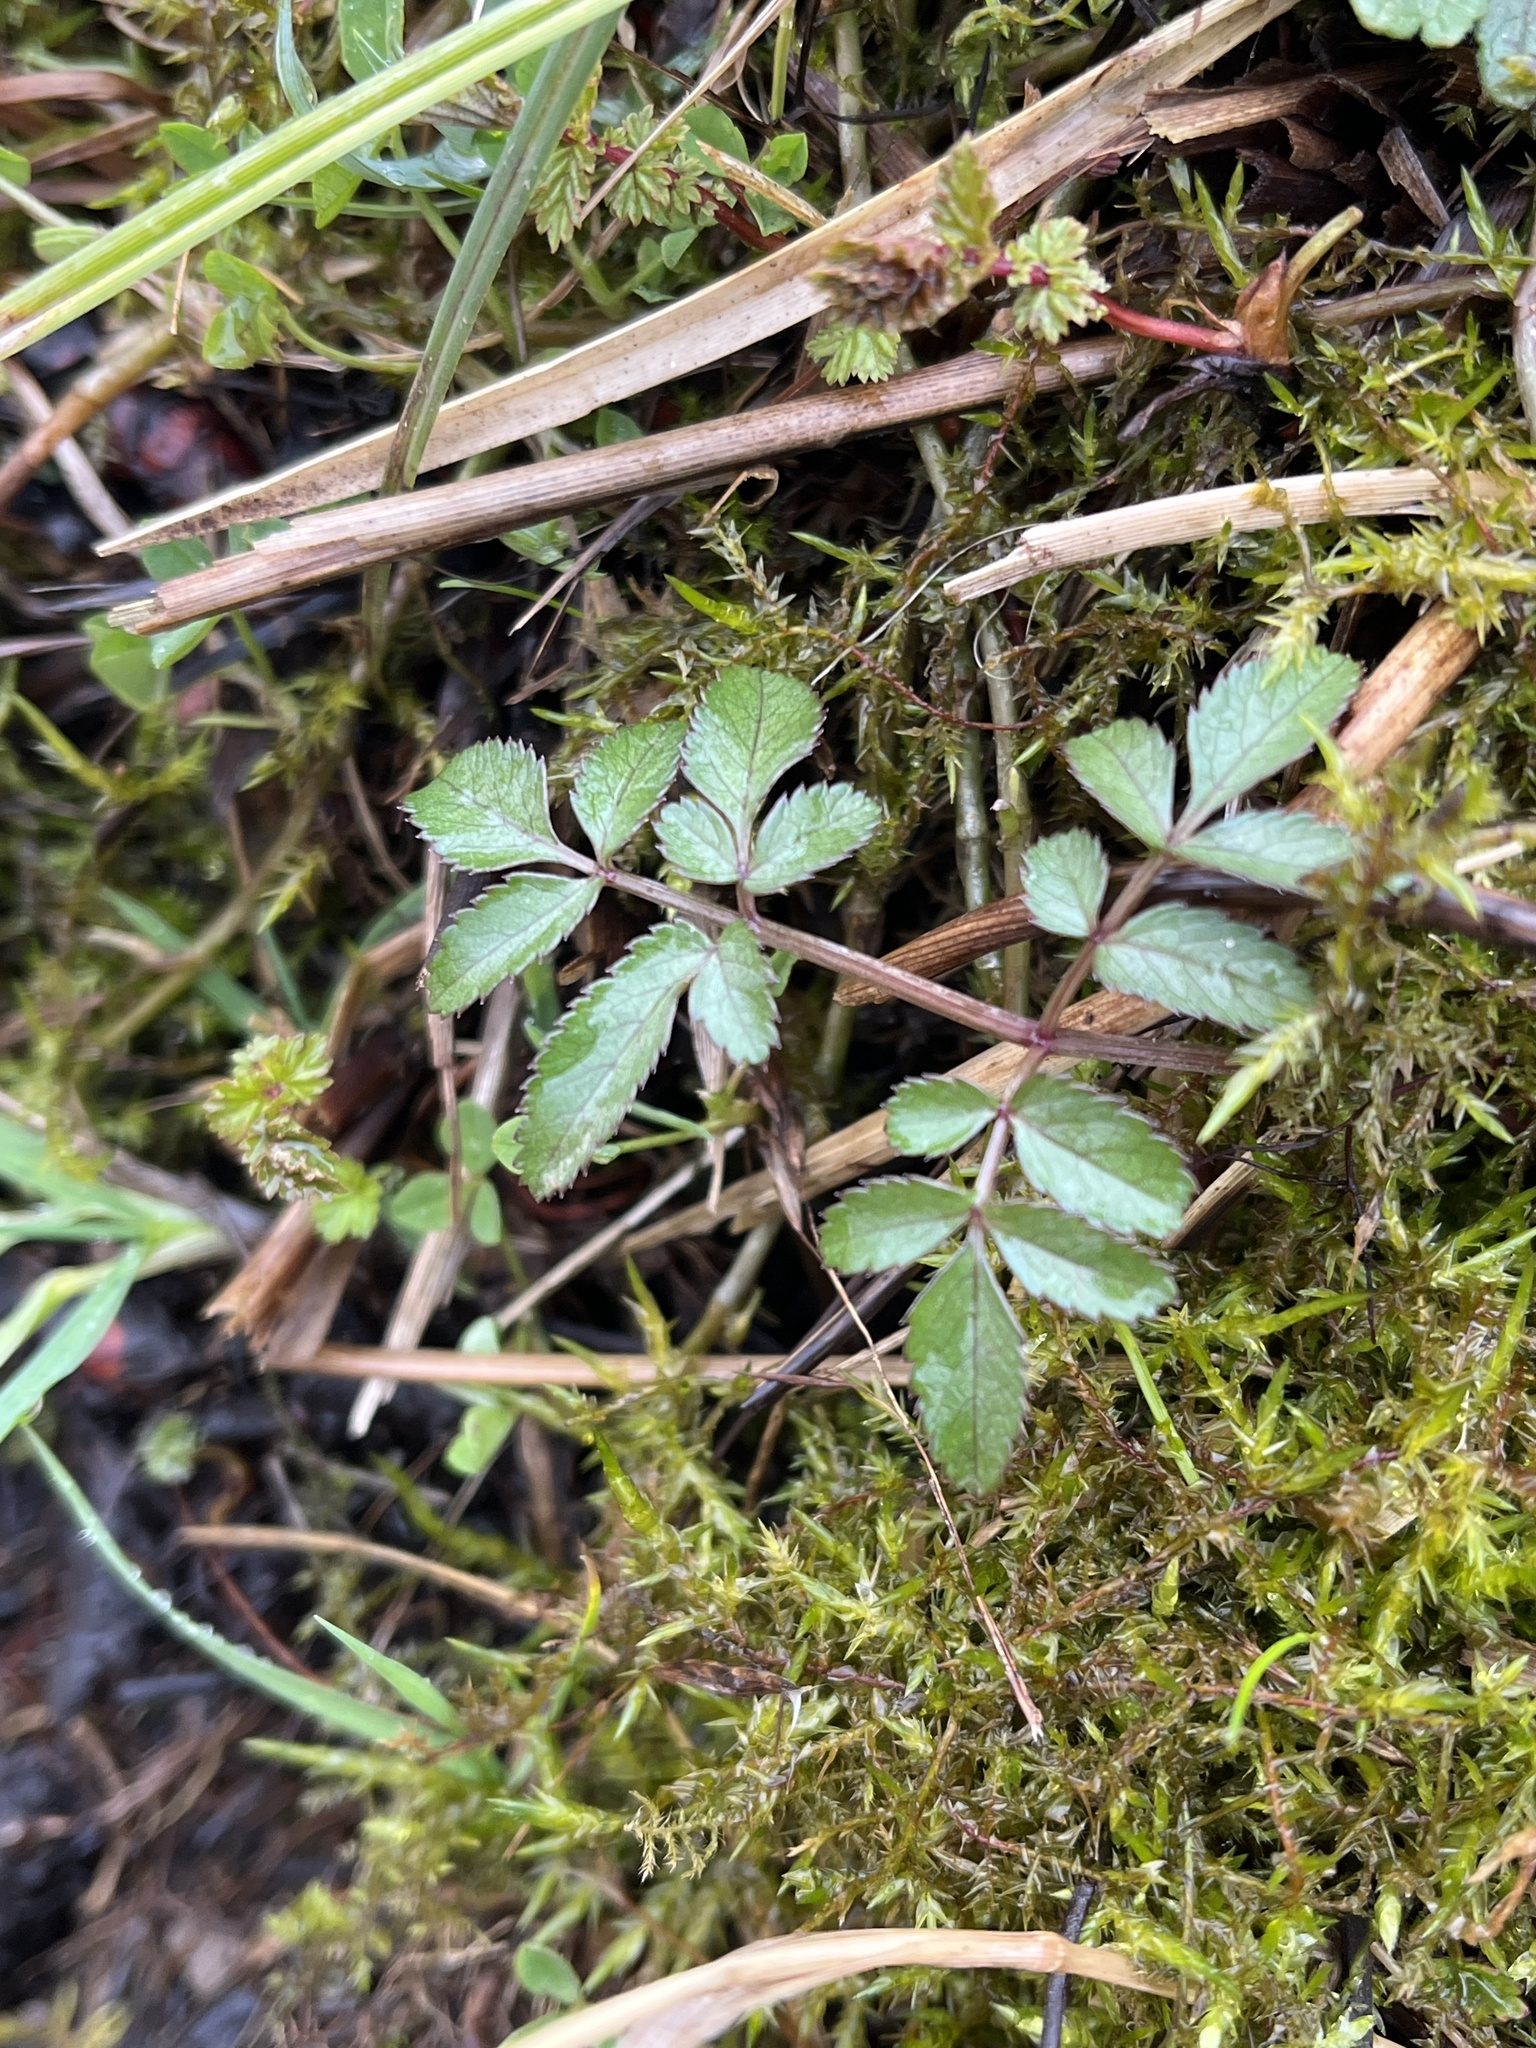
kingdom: Plantae
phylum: Tracheophyta
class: Magnoliopsida
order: Apiales
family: Apiaceae
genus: Angelica
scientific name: Angelica sylvestris
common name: Wild angelica
